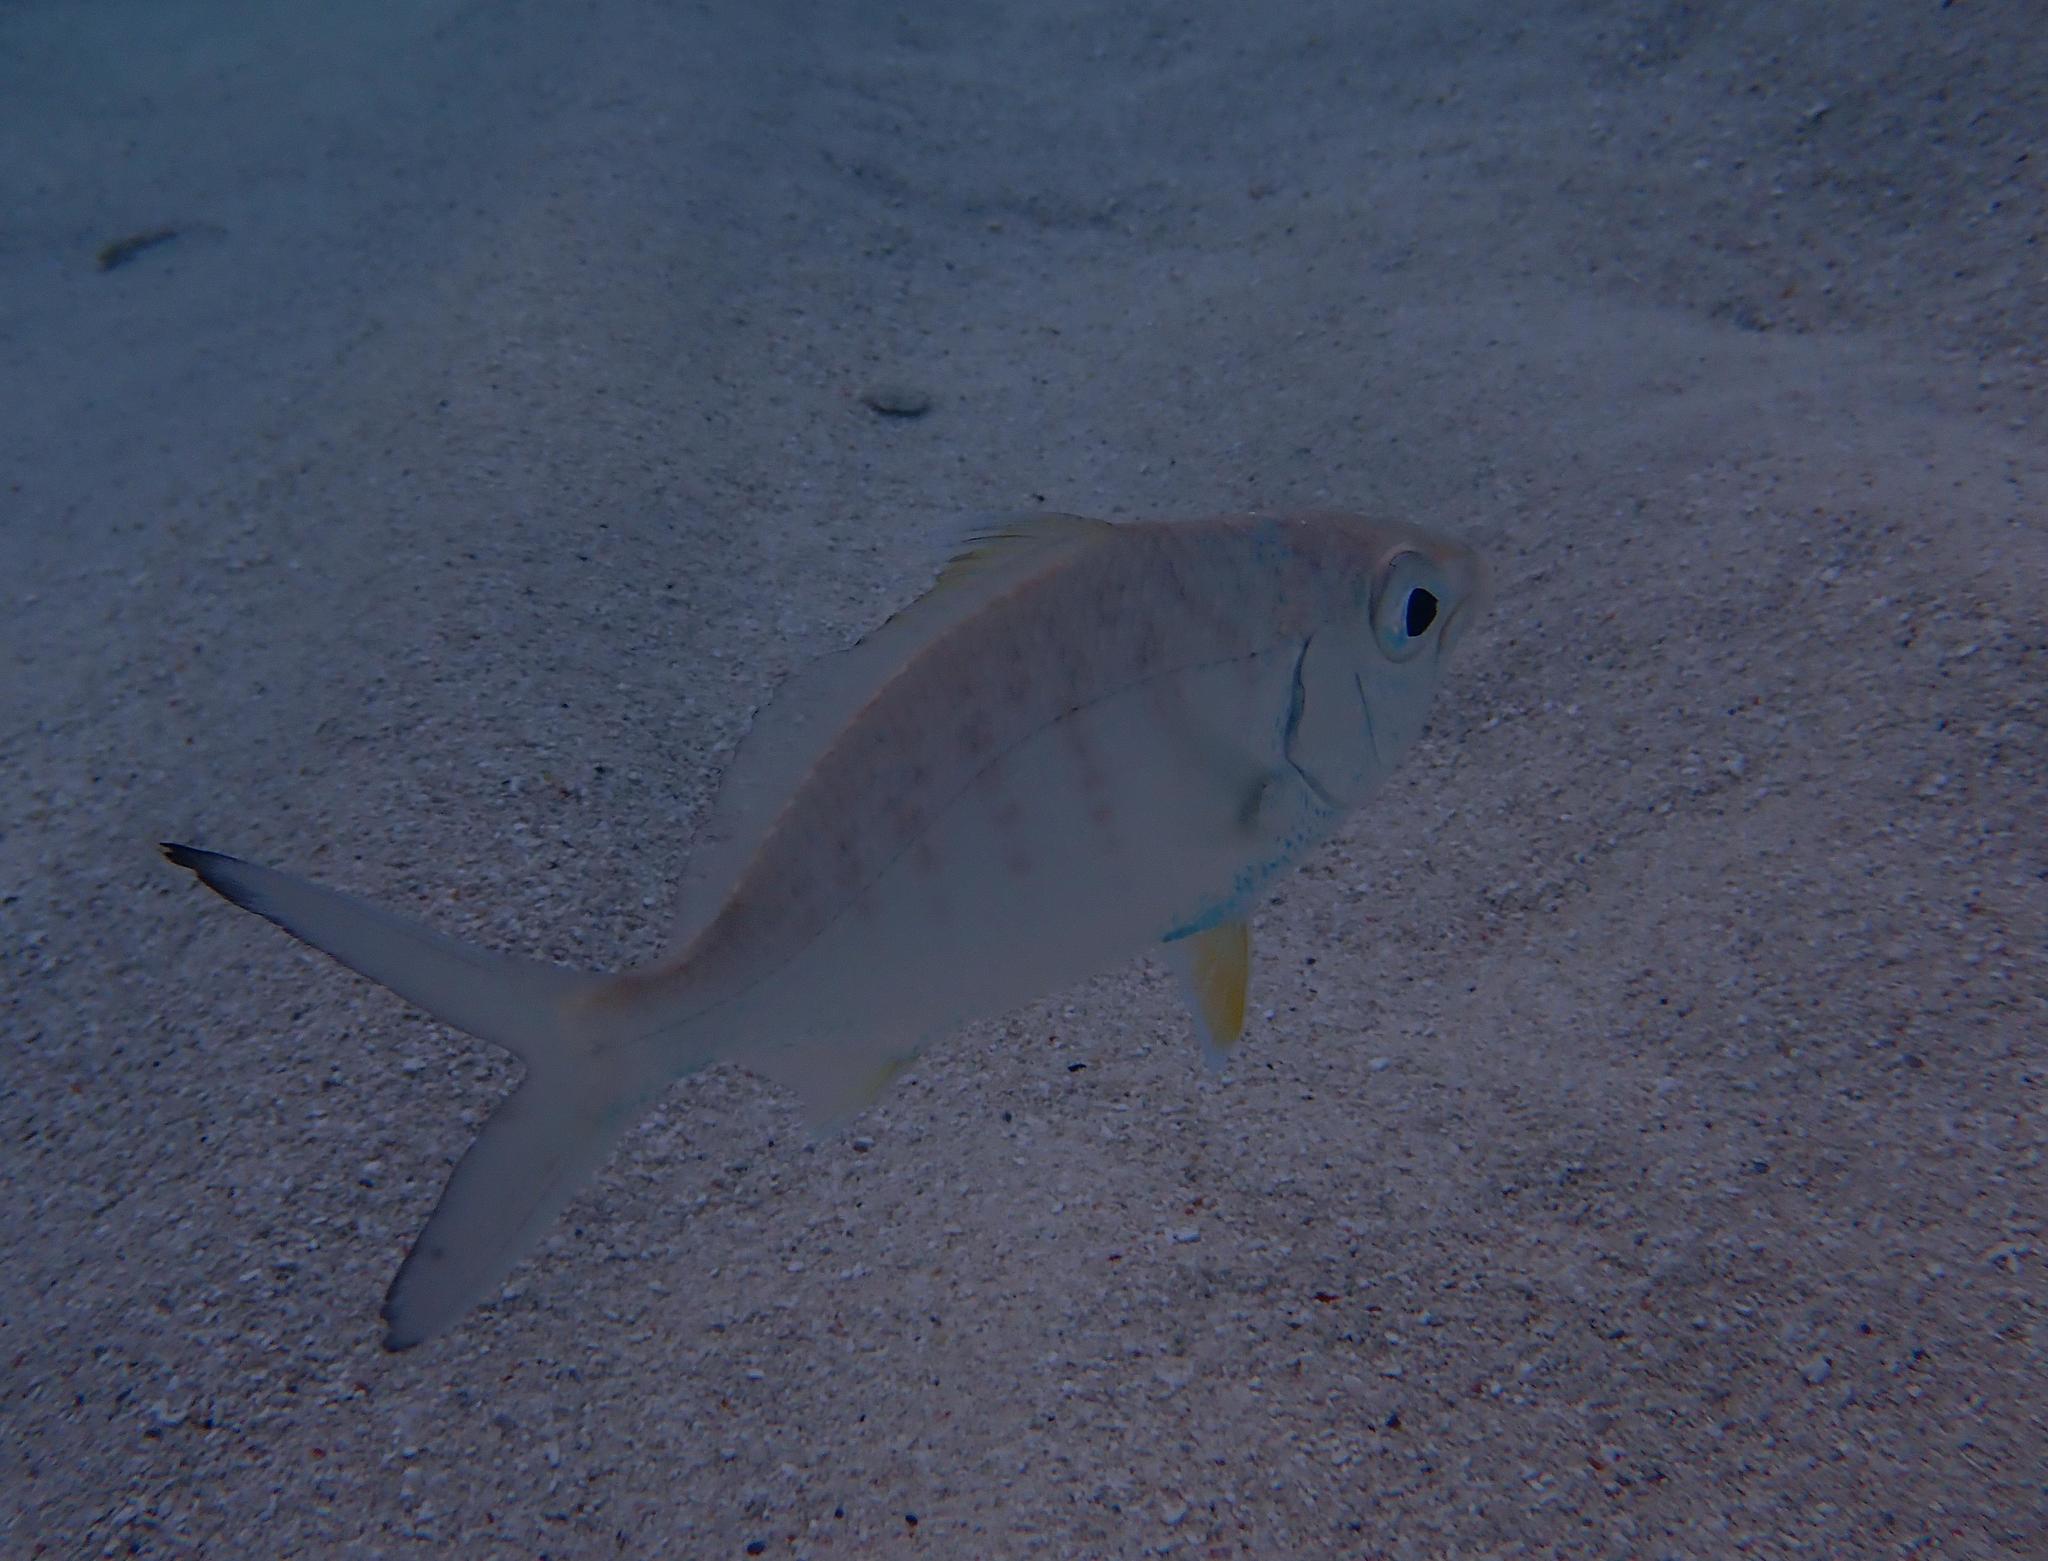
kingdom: Animalia
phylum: Chordata
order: Perciformes
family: Gerreidae
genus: Gerres
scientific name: Gerres cinereus
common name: Hedow
